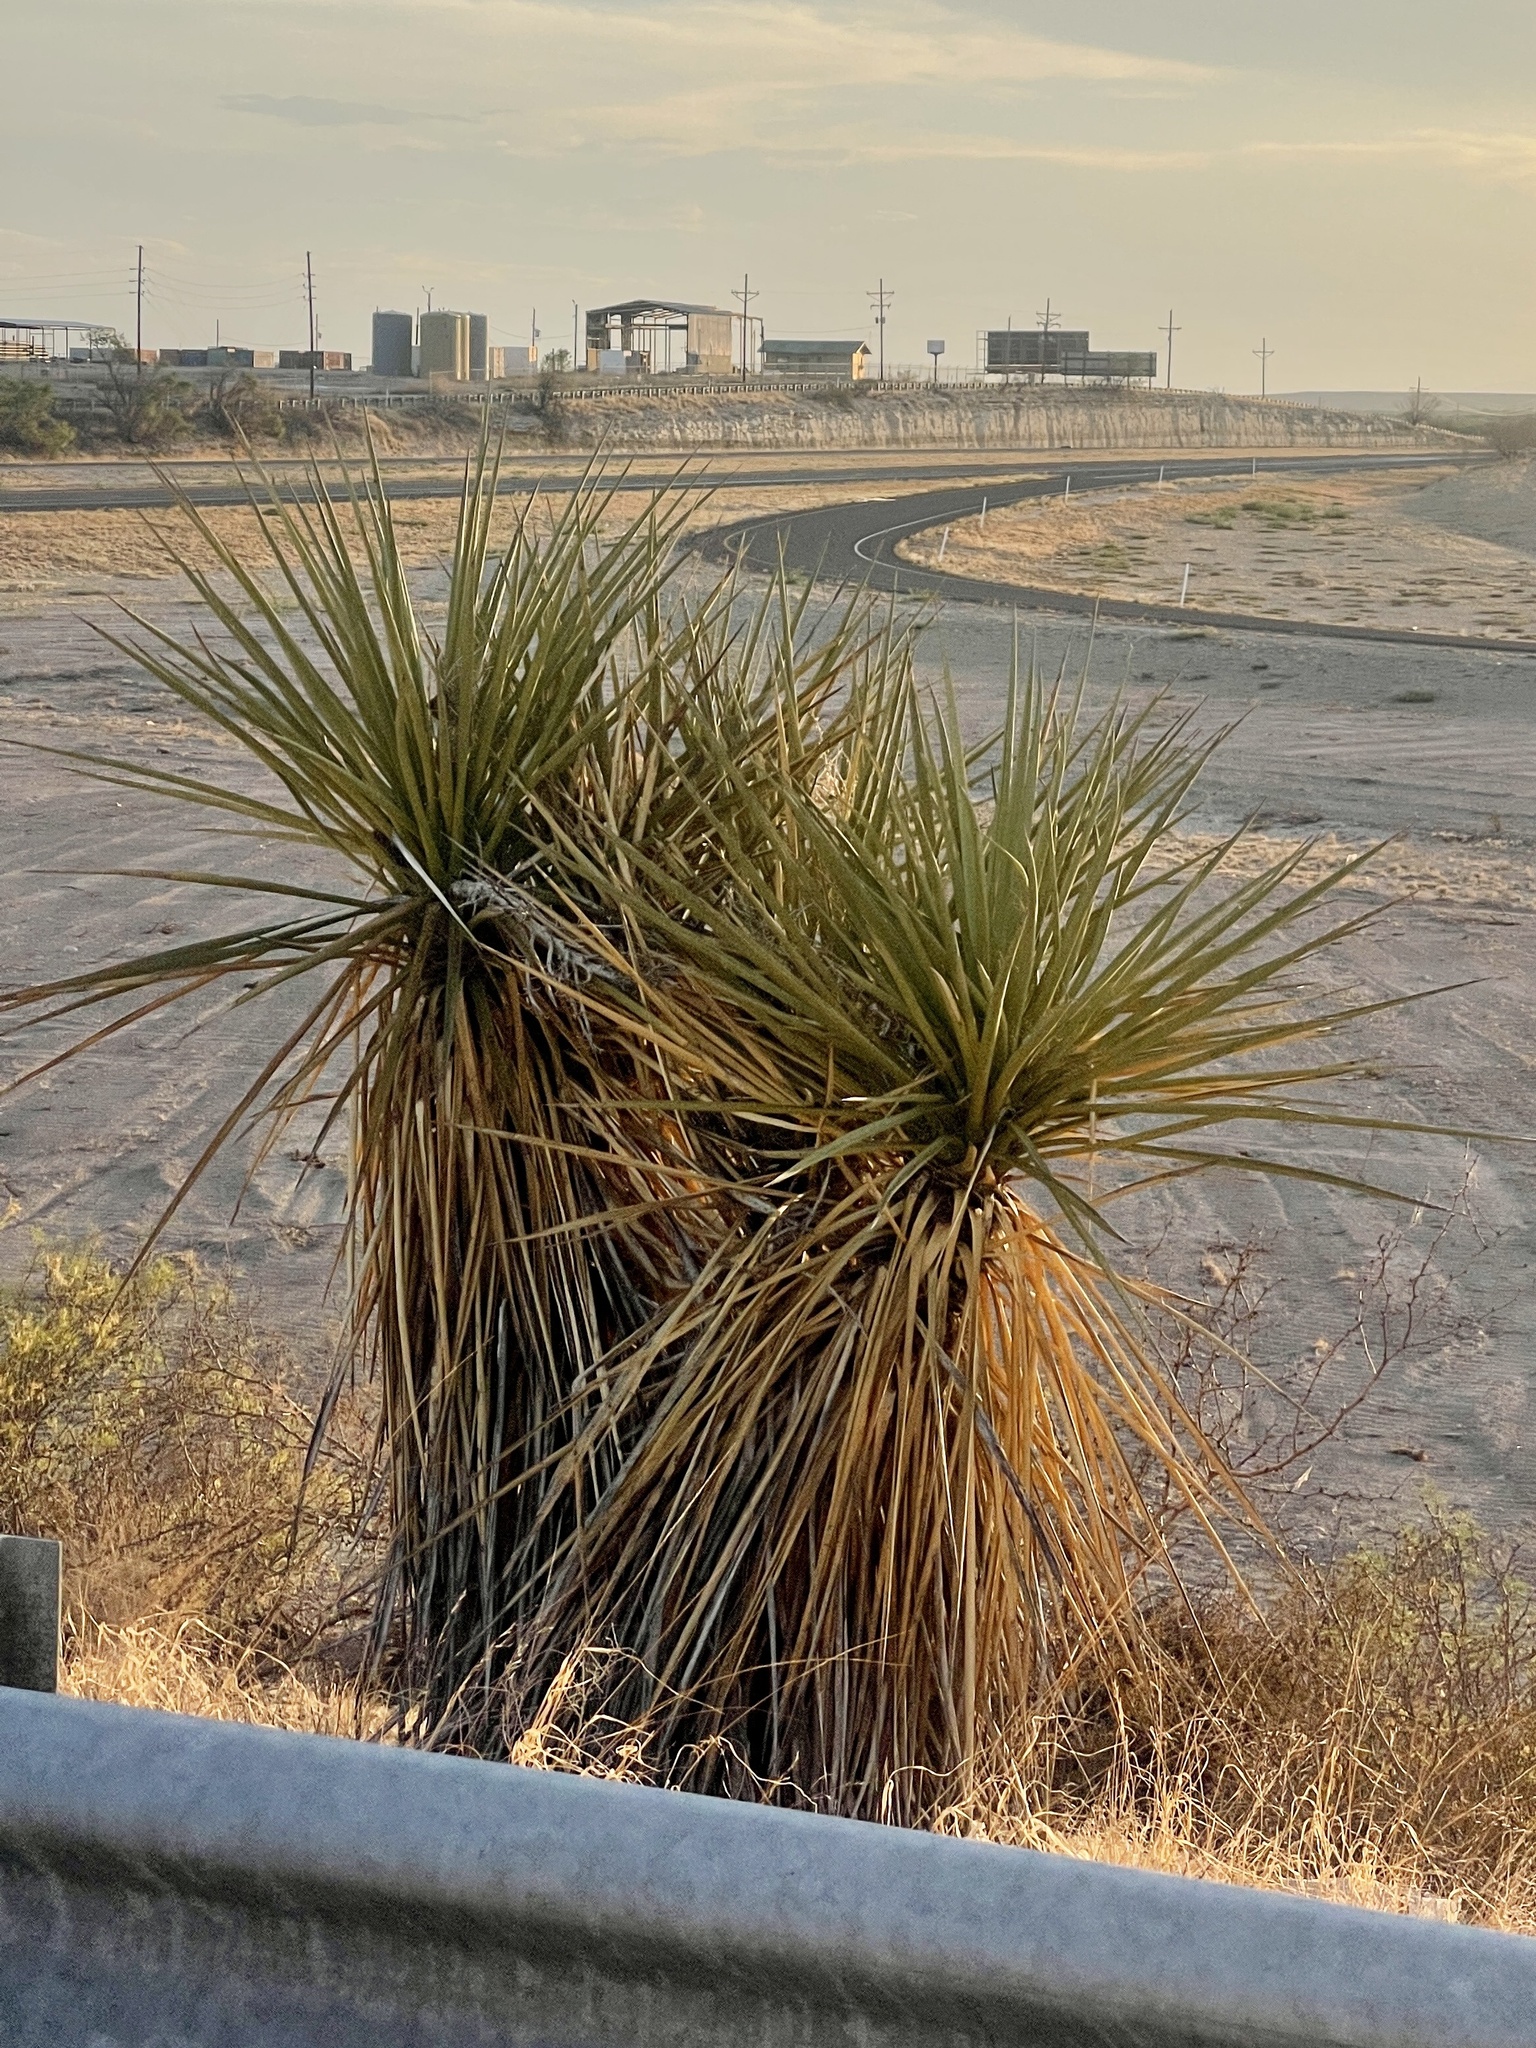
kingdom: Plantae
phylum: Tracheophyta
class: Liliopsida
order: Asparagales
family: Asparagaceae
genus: Yucca
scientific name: Yucca treculiana
